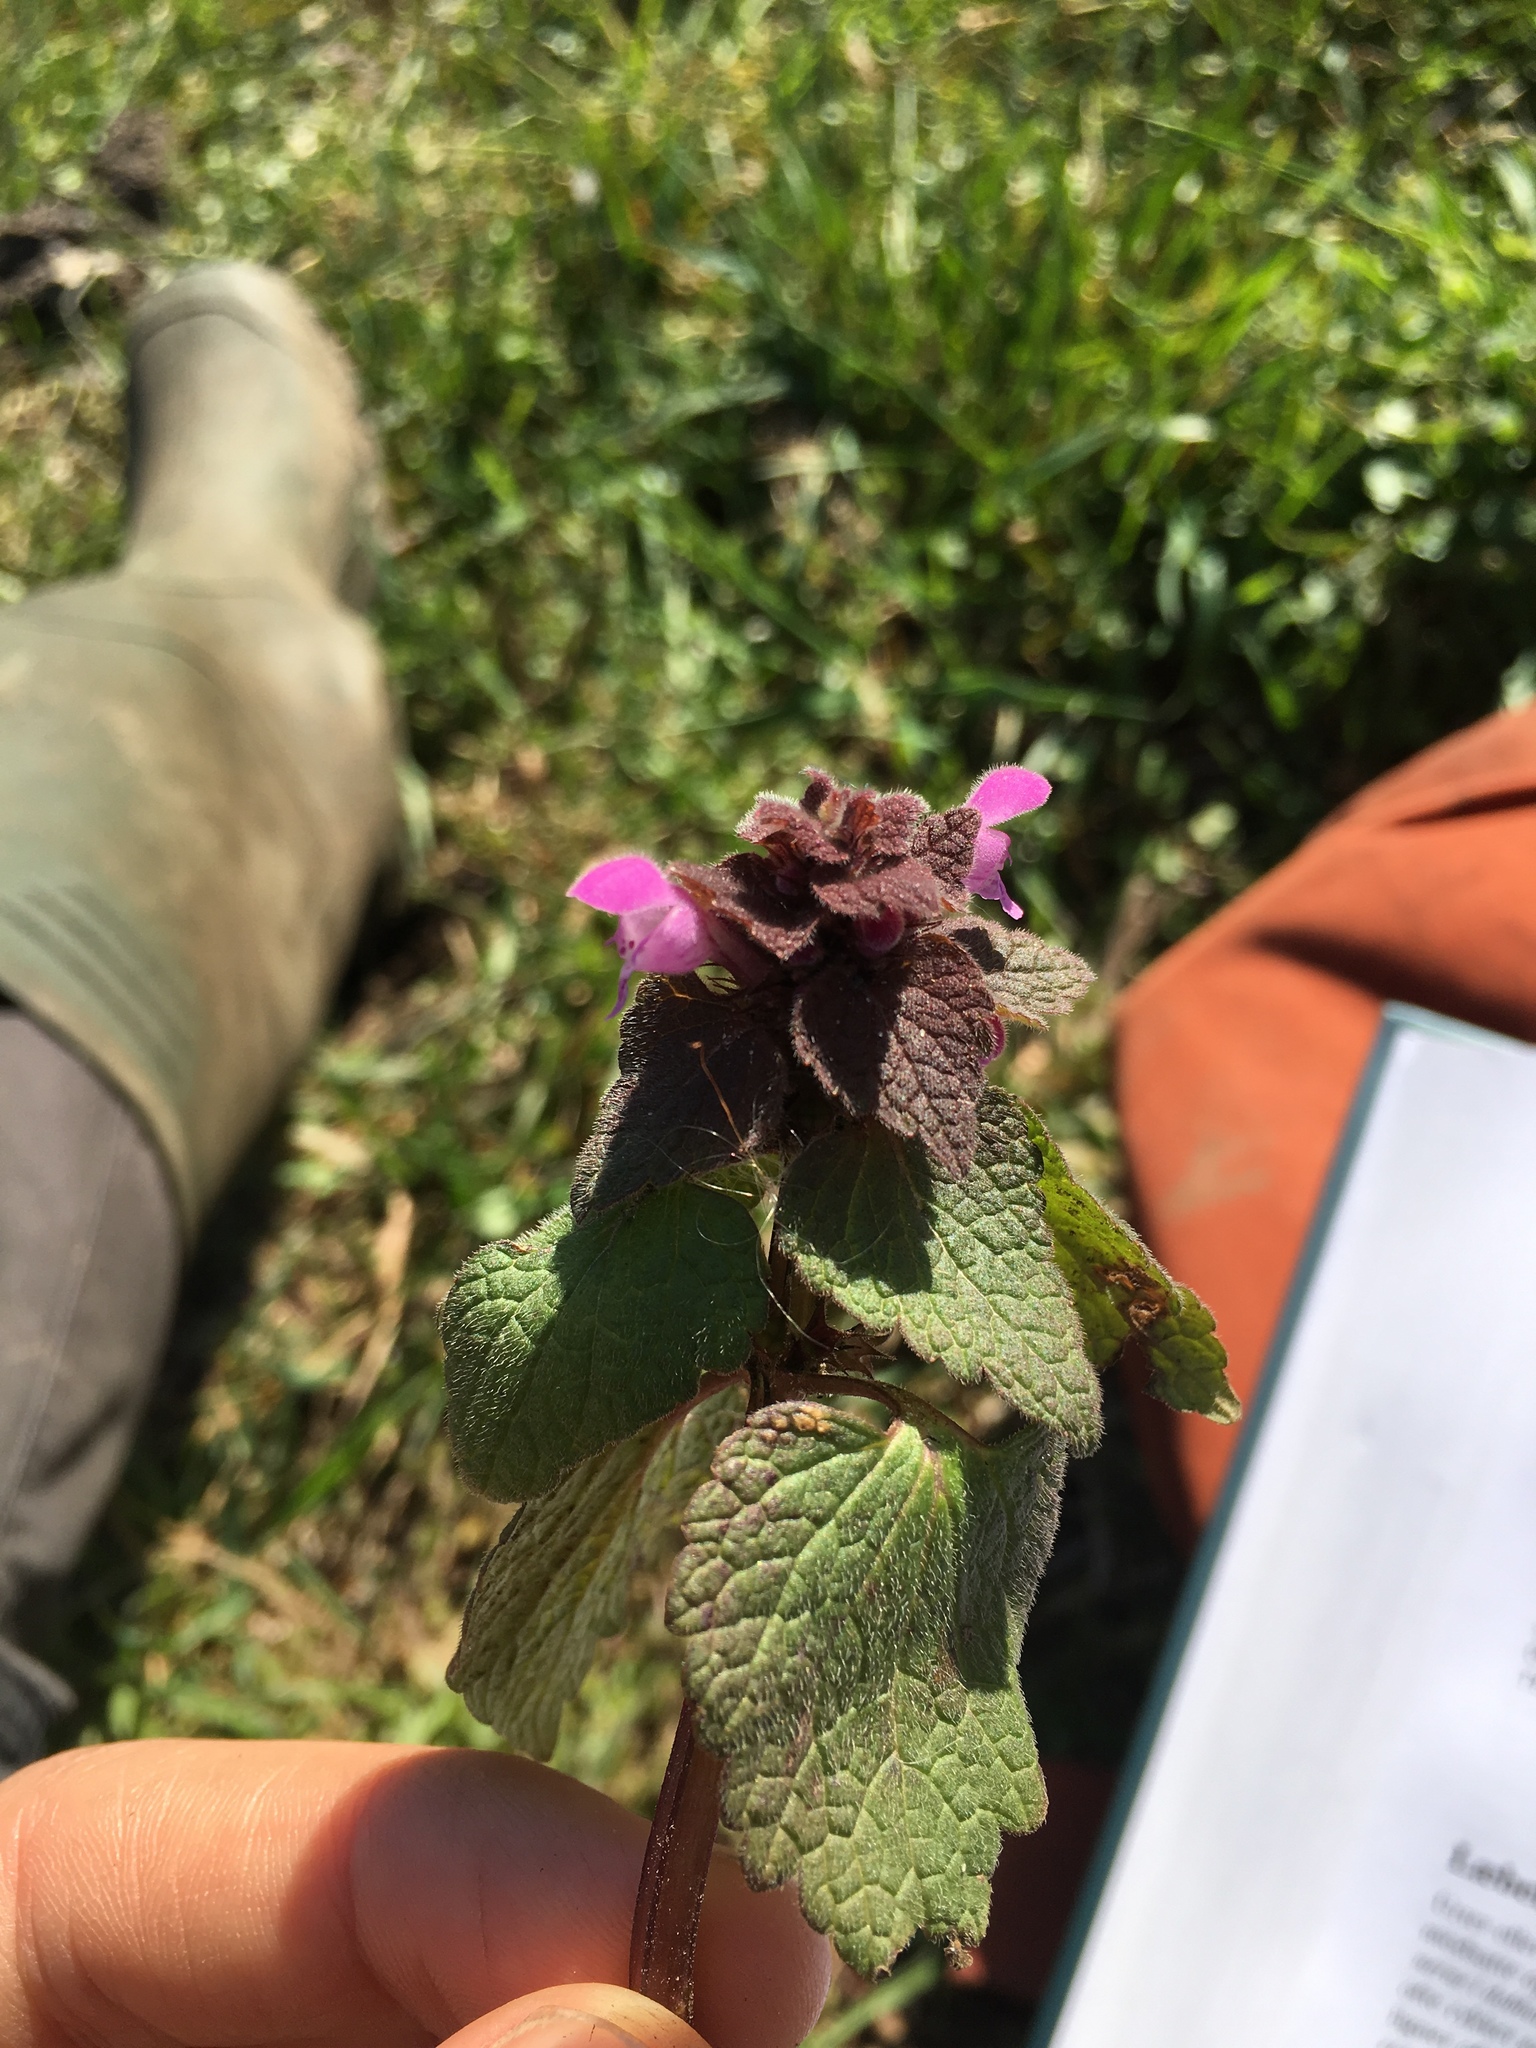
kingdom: Plantae
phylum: Tracheophyta
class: Magnoliopsida
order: Lamiales
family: Lamiaceae
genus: Lamium
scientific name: Lamium purpureum
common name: Red dead-nettle
